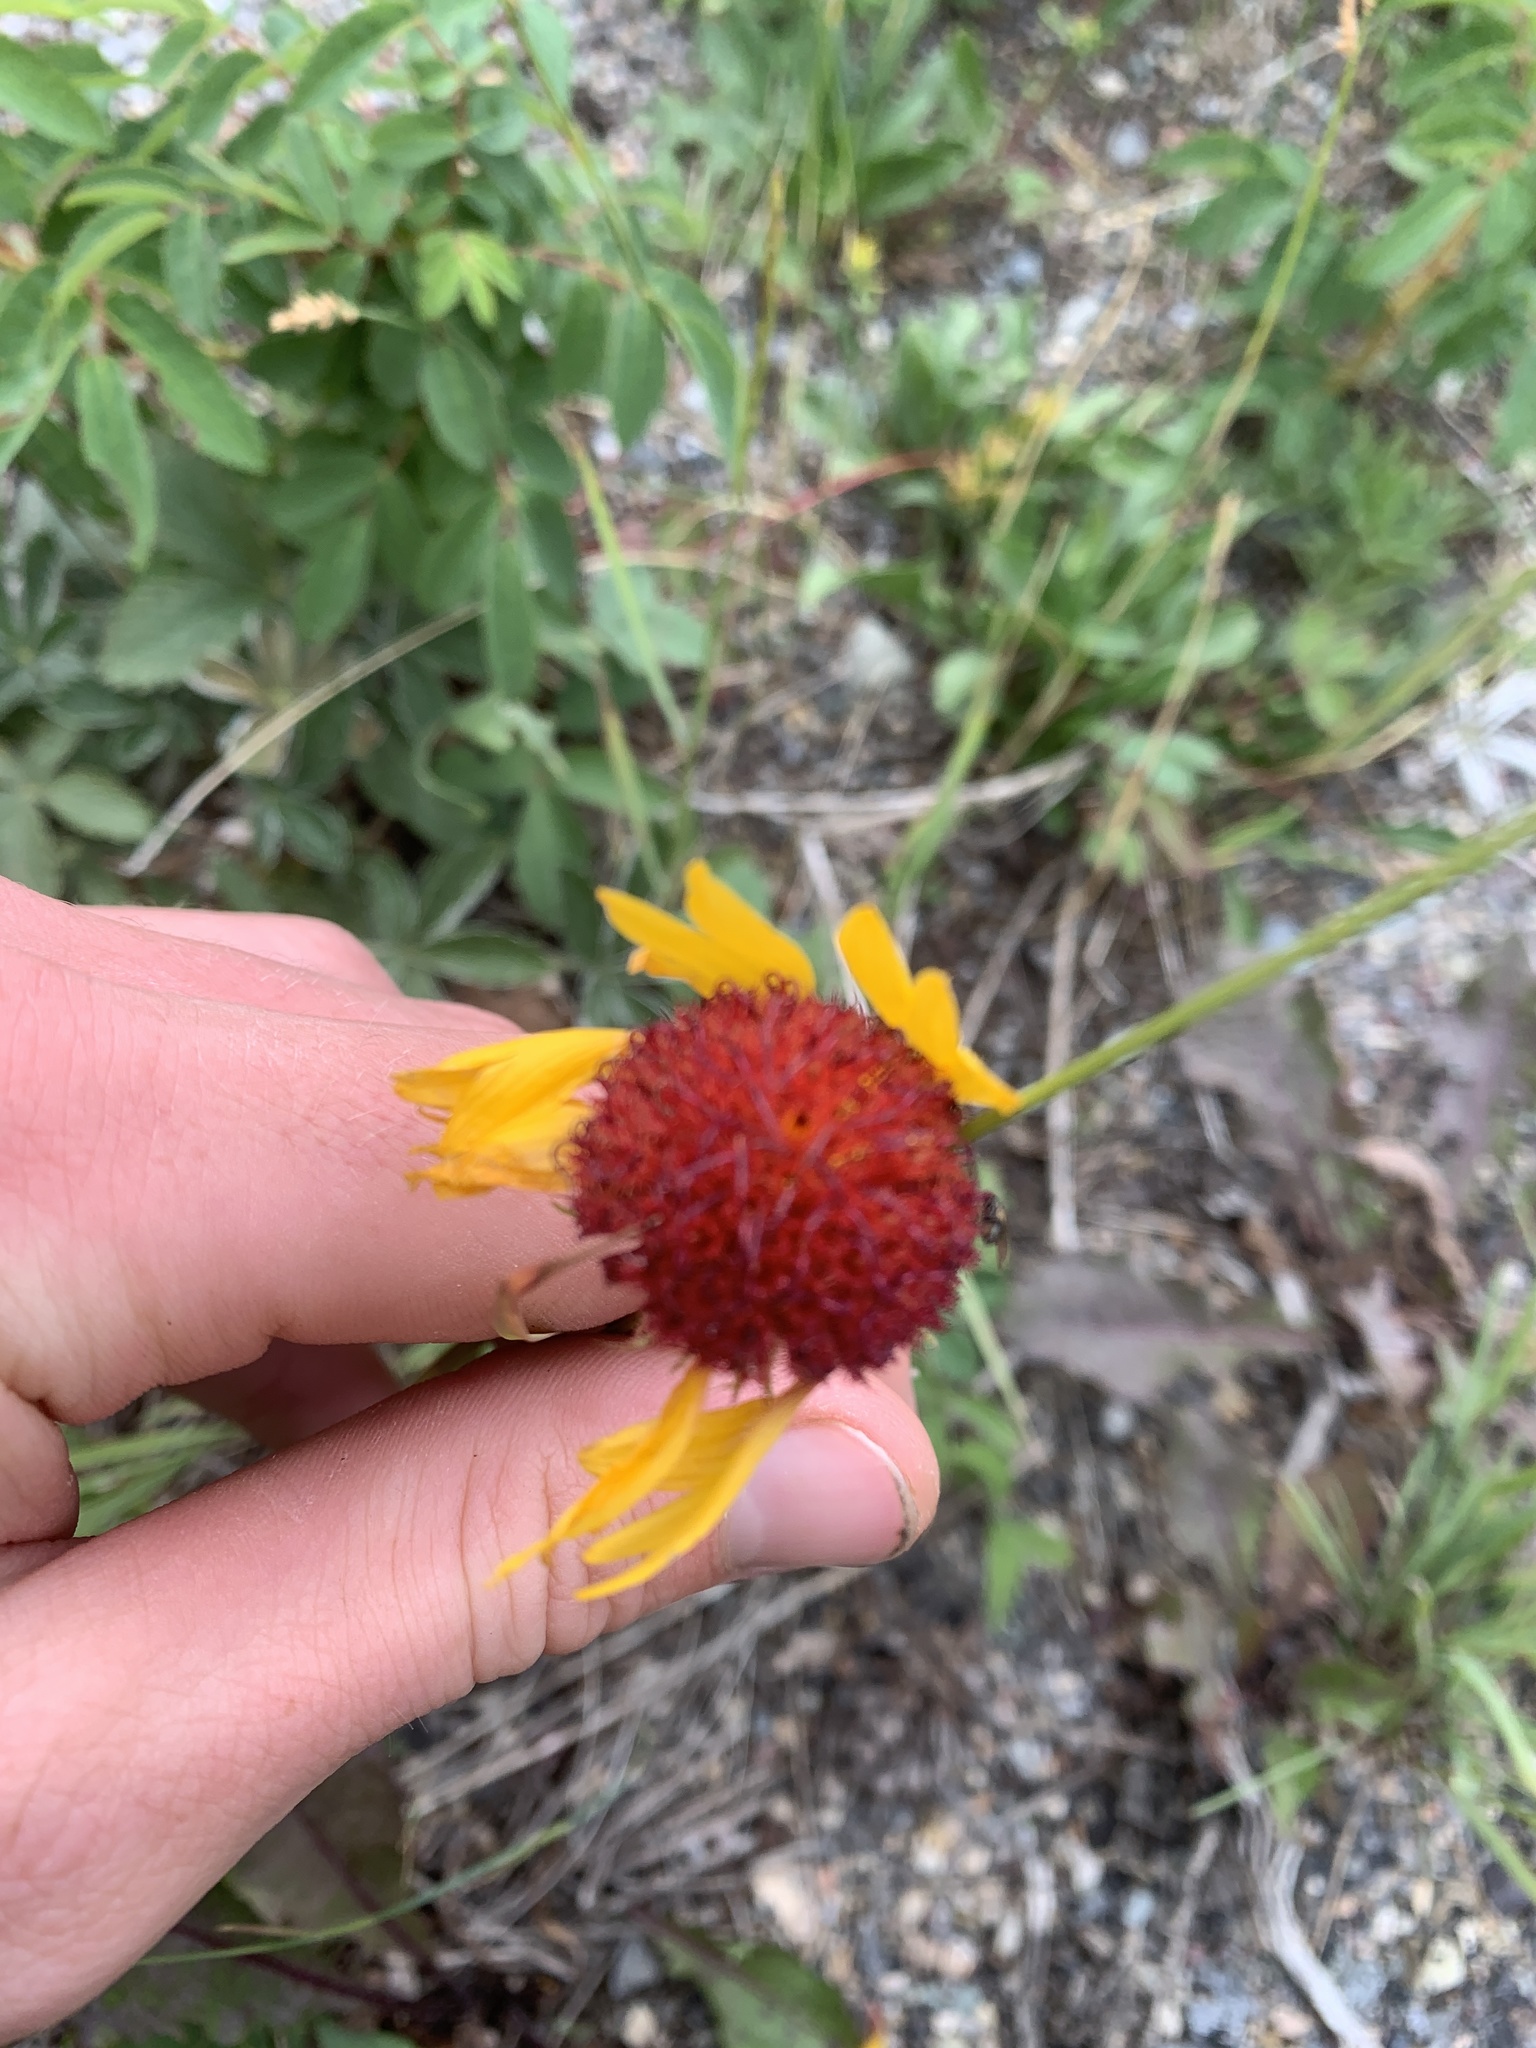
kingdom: Plantae
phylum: Tracheophyta
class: Magnoliopsida
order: Asterales
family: Asteraceae
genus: Gaillardia
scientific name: Gaillardia aristata
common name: Blanket-flower
